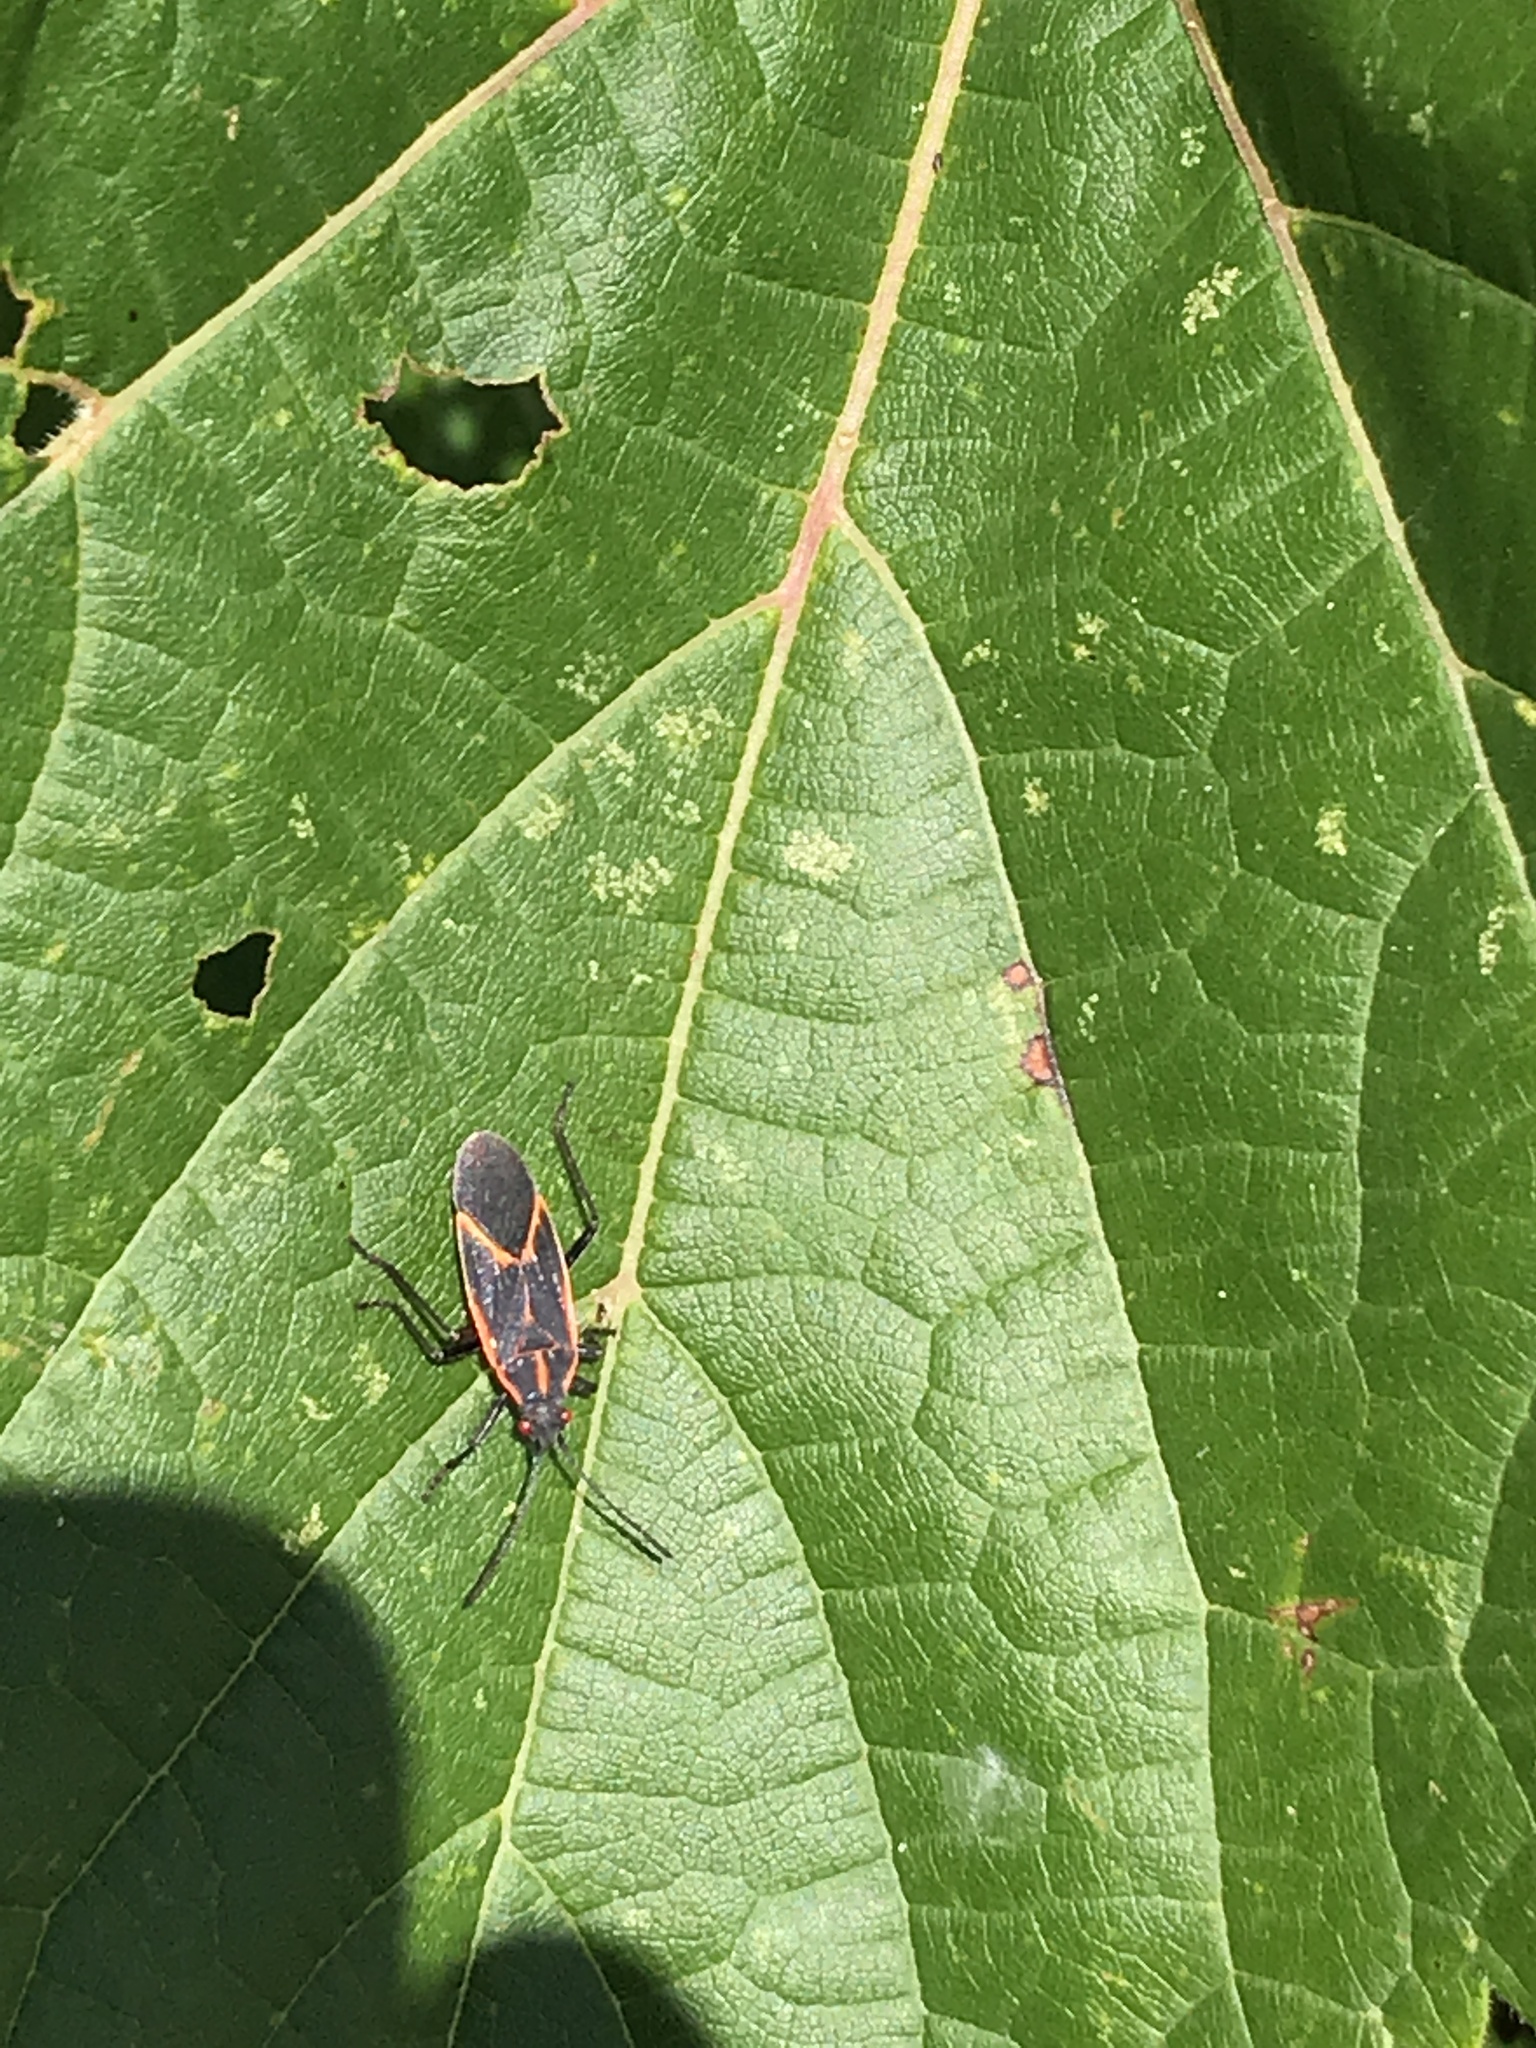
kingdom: Animalia
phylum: Arthropoda
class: Insecta
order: Hemiptera
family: Rhopalidae
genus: Boisea
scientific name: Boisea trivittata
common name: Boxelder bug
